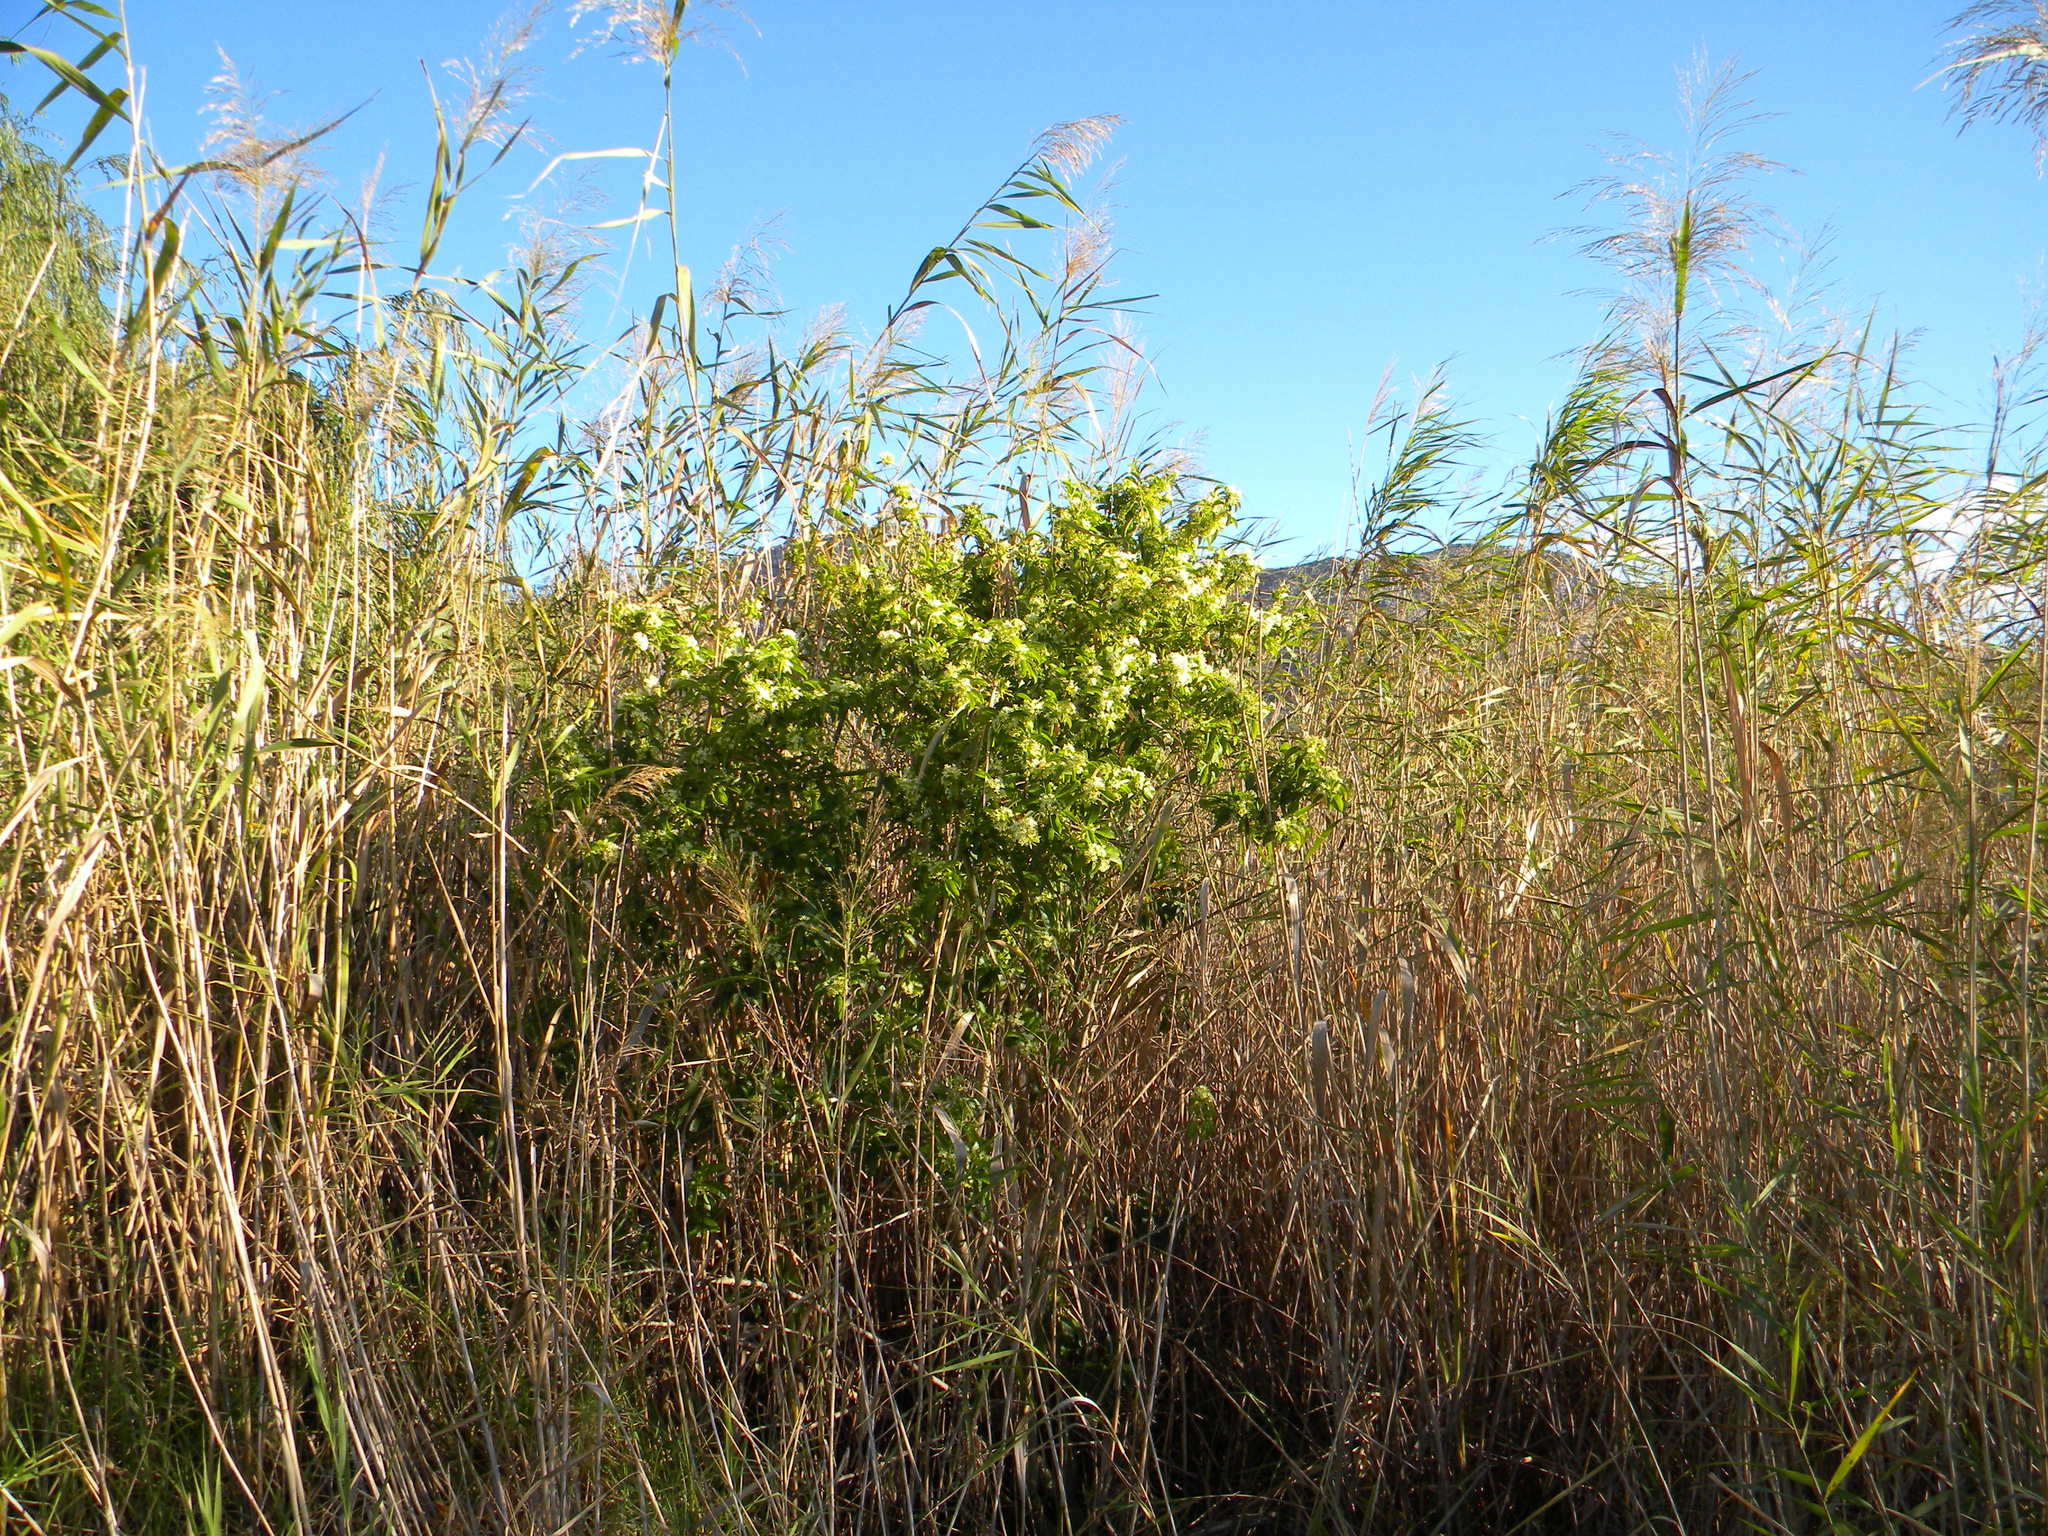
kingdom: Plantae
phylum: Tracheophyta
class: Liliopsida
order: Poales
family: Poaceae
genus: Phragmites
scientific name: Phragmites australis
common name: Common reed
